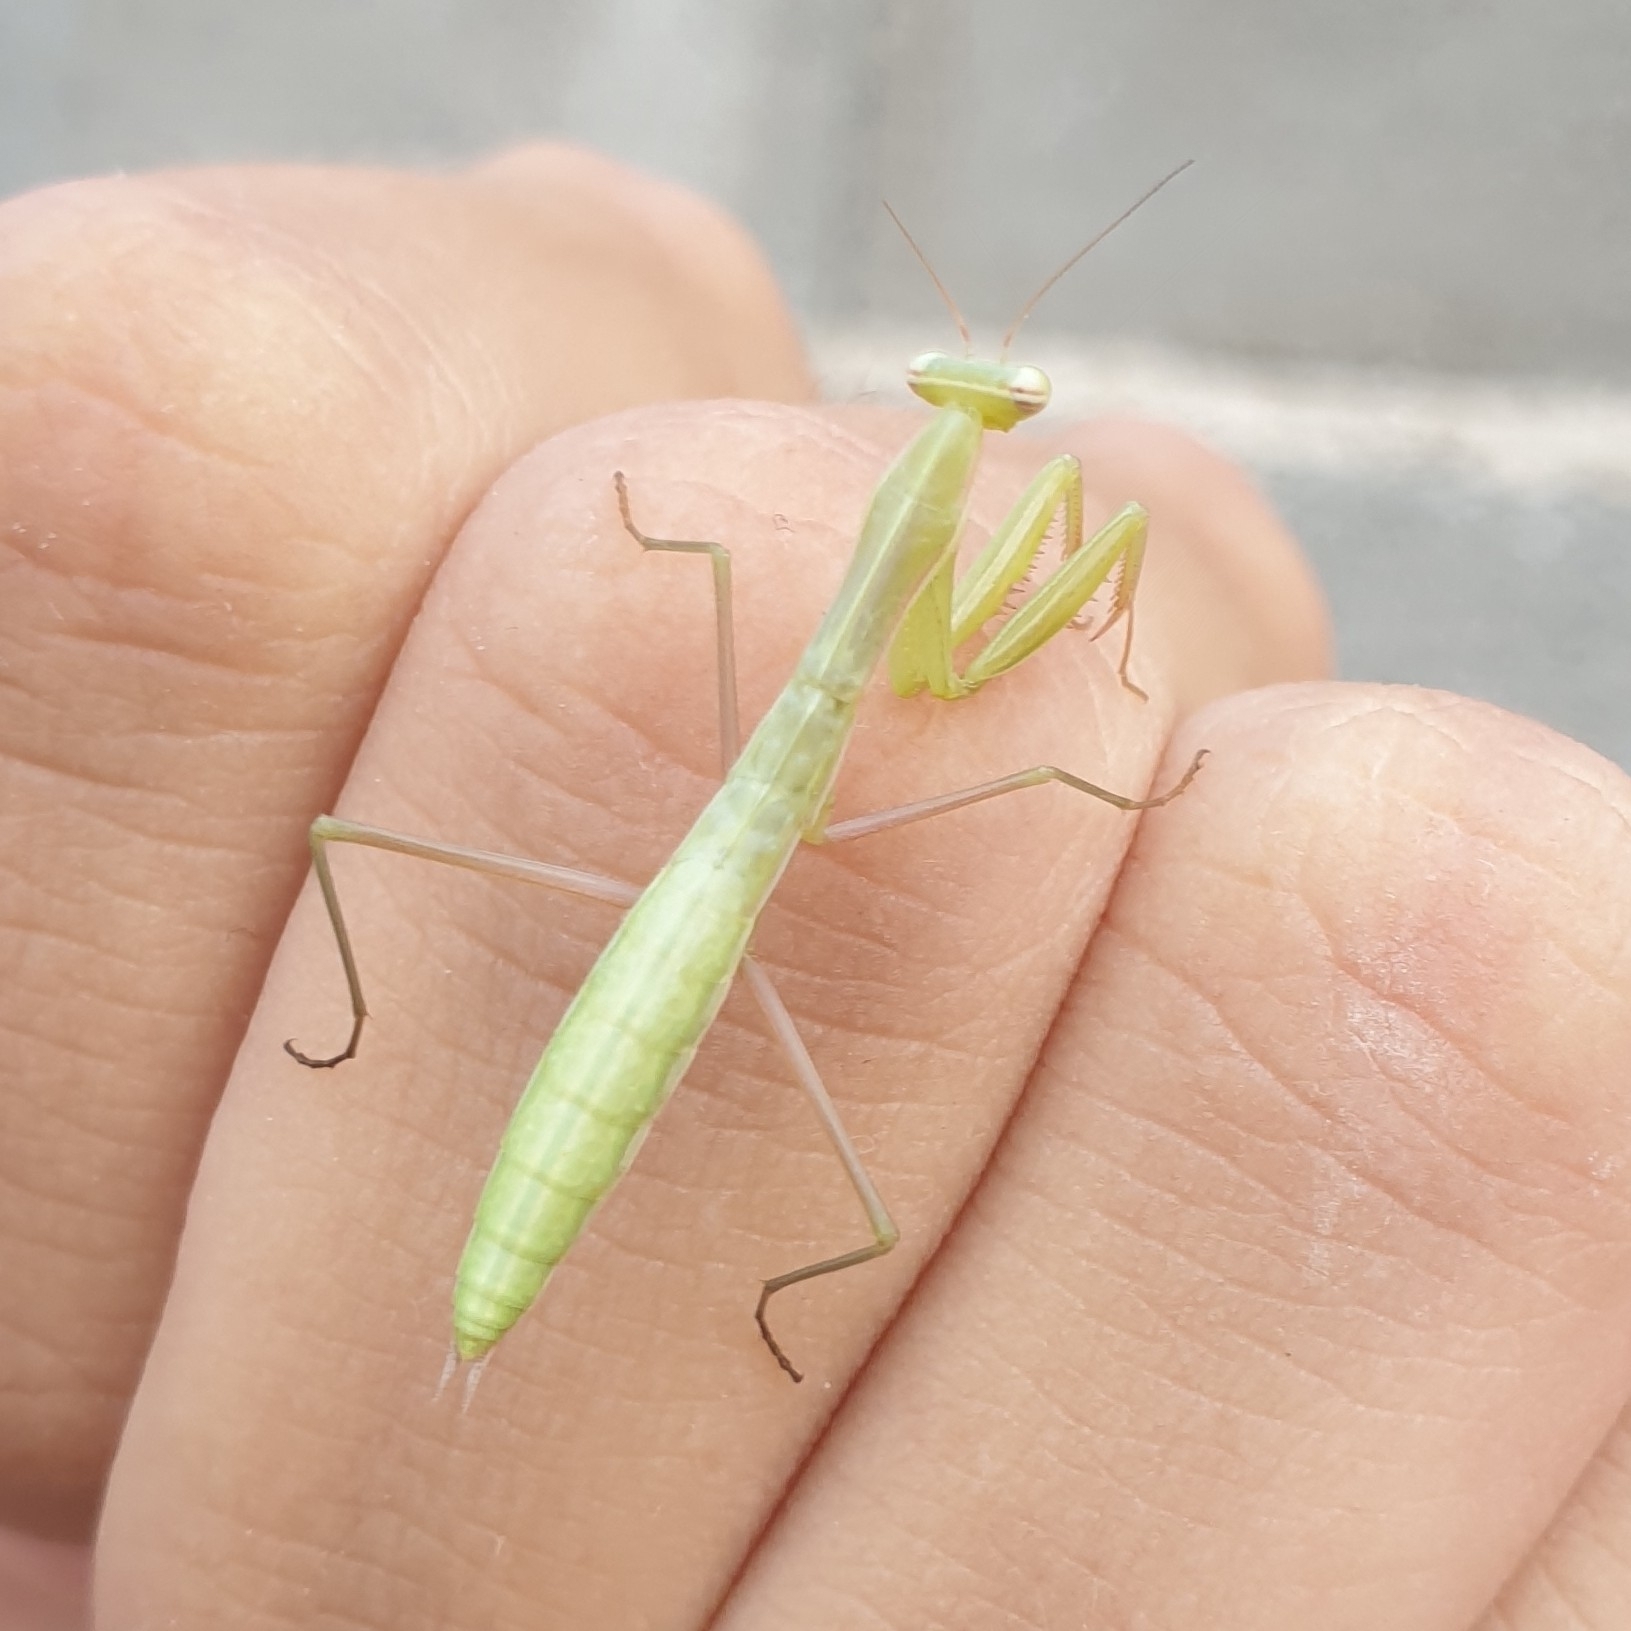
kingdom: Animalia
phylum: Arthropoda
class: Insecta
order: Mantodea
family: Mantidae
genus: Mantis
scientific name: Mantis religiosa
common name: Praying mantis
